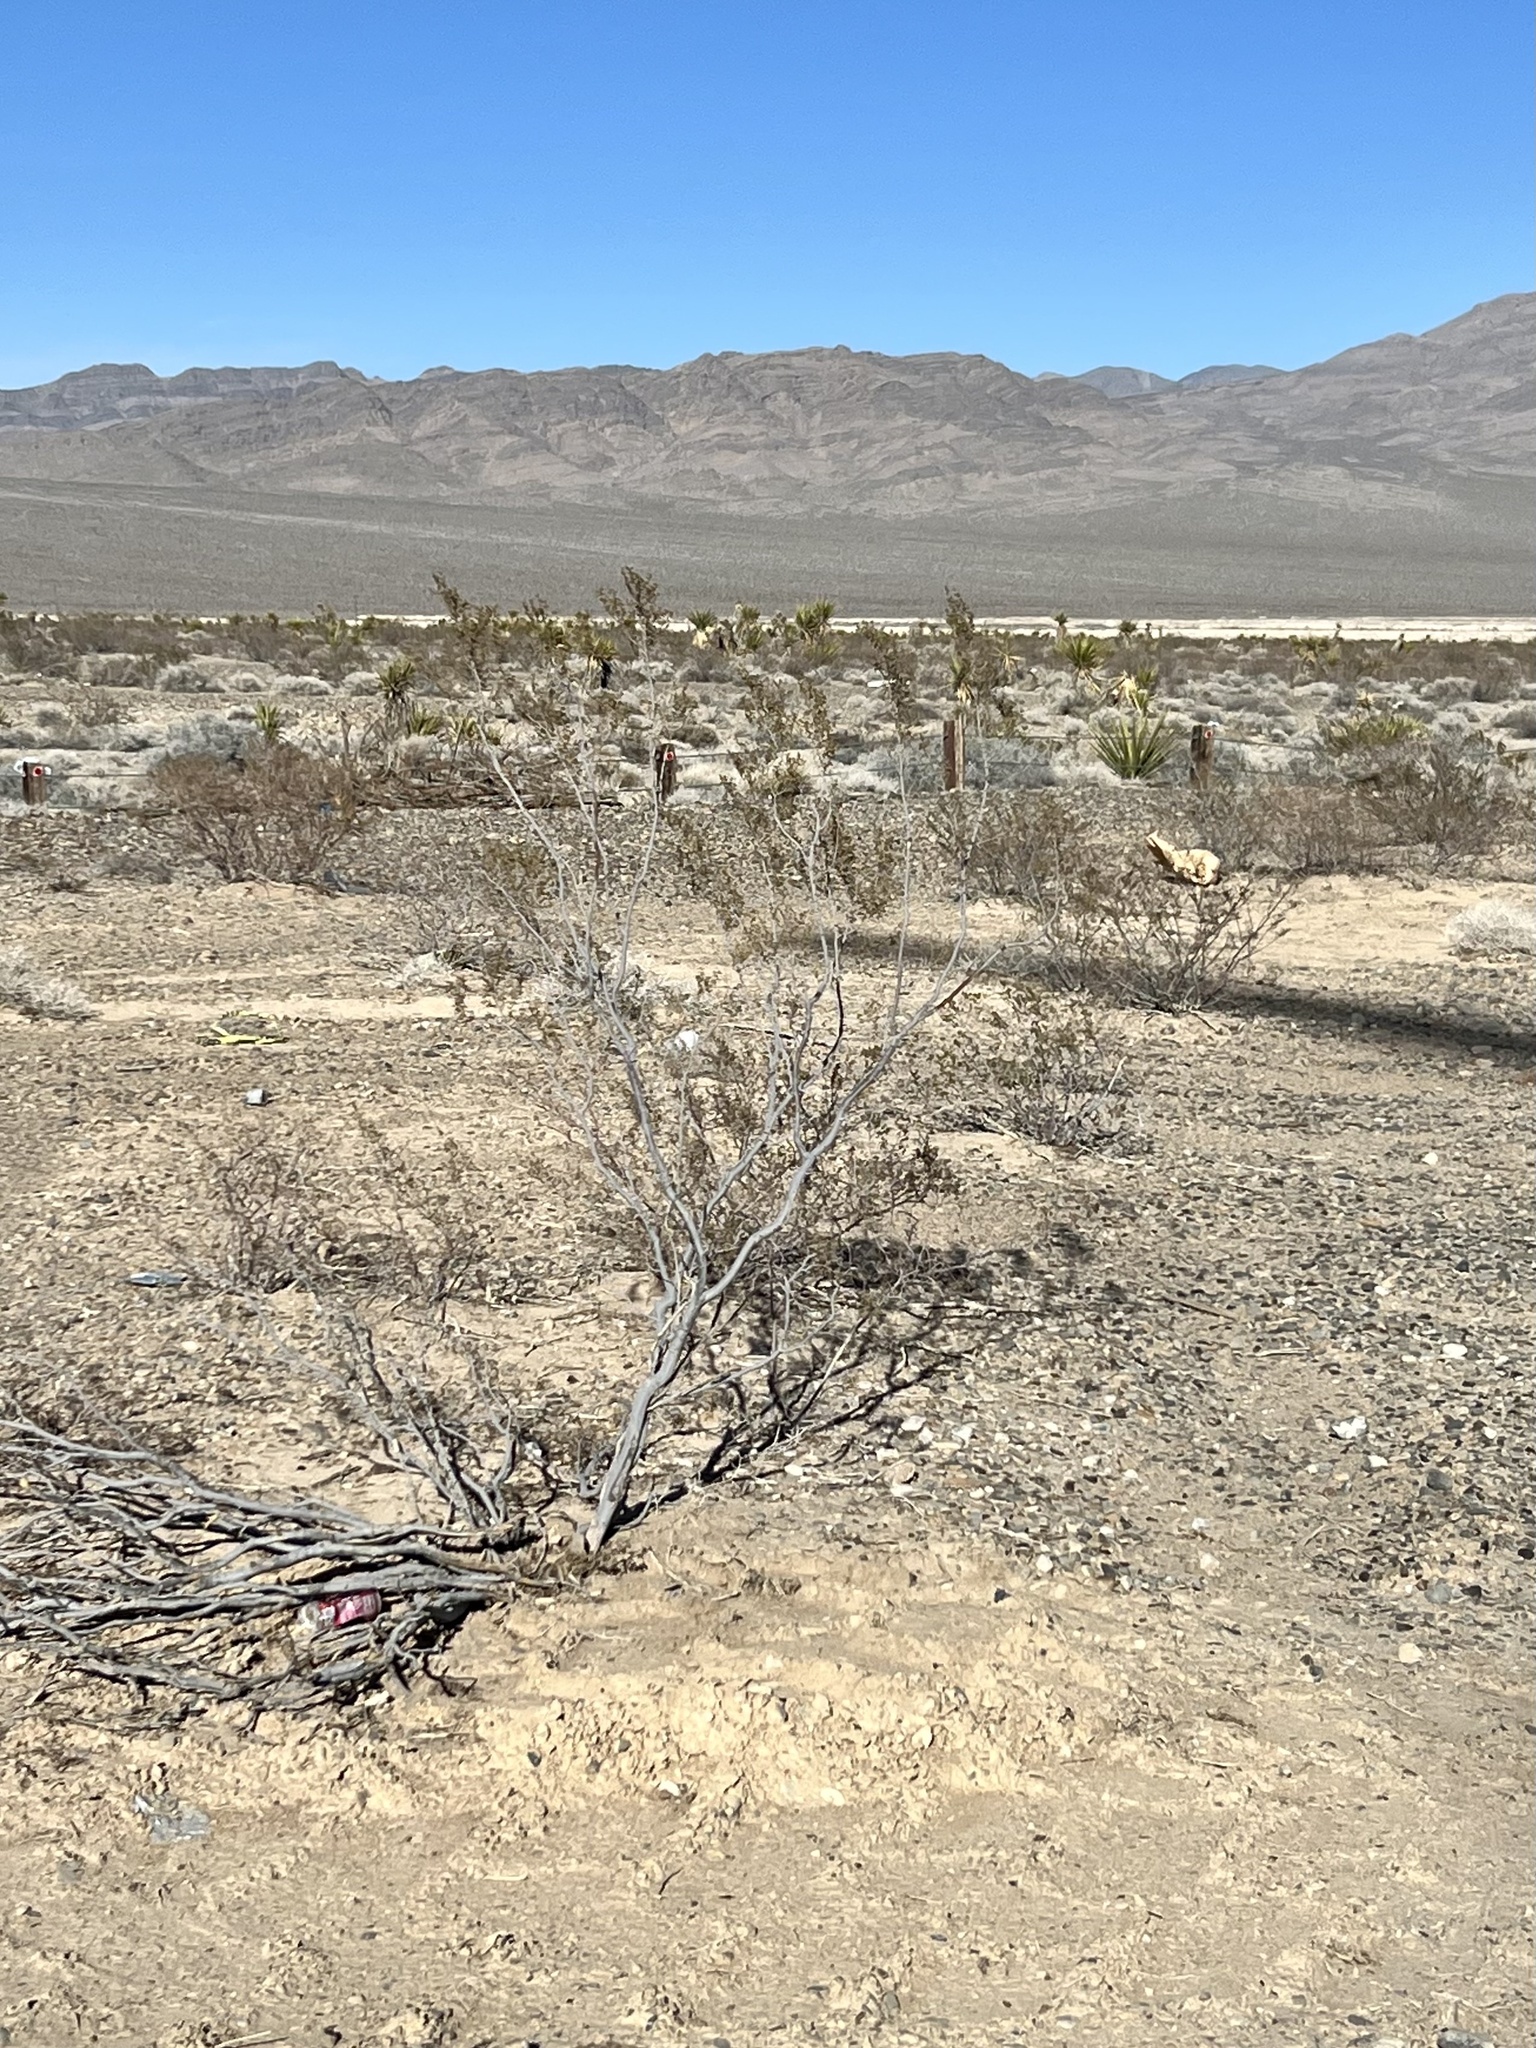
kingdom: Plantae
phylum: Tracheophyta
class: Magnoliopsida
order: Zygophyllales
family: Zygophyllaceae
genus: Larrea
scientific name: Larrea tridentata
